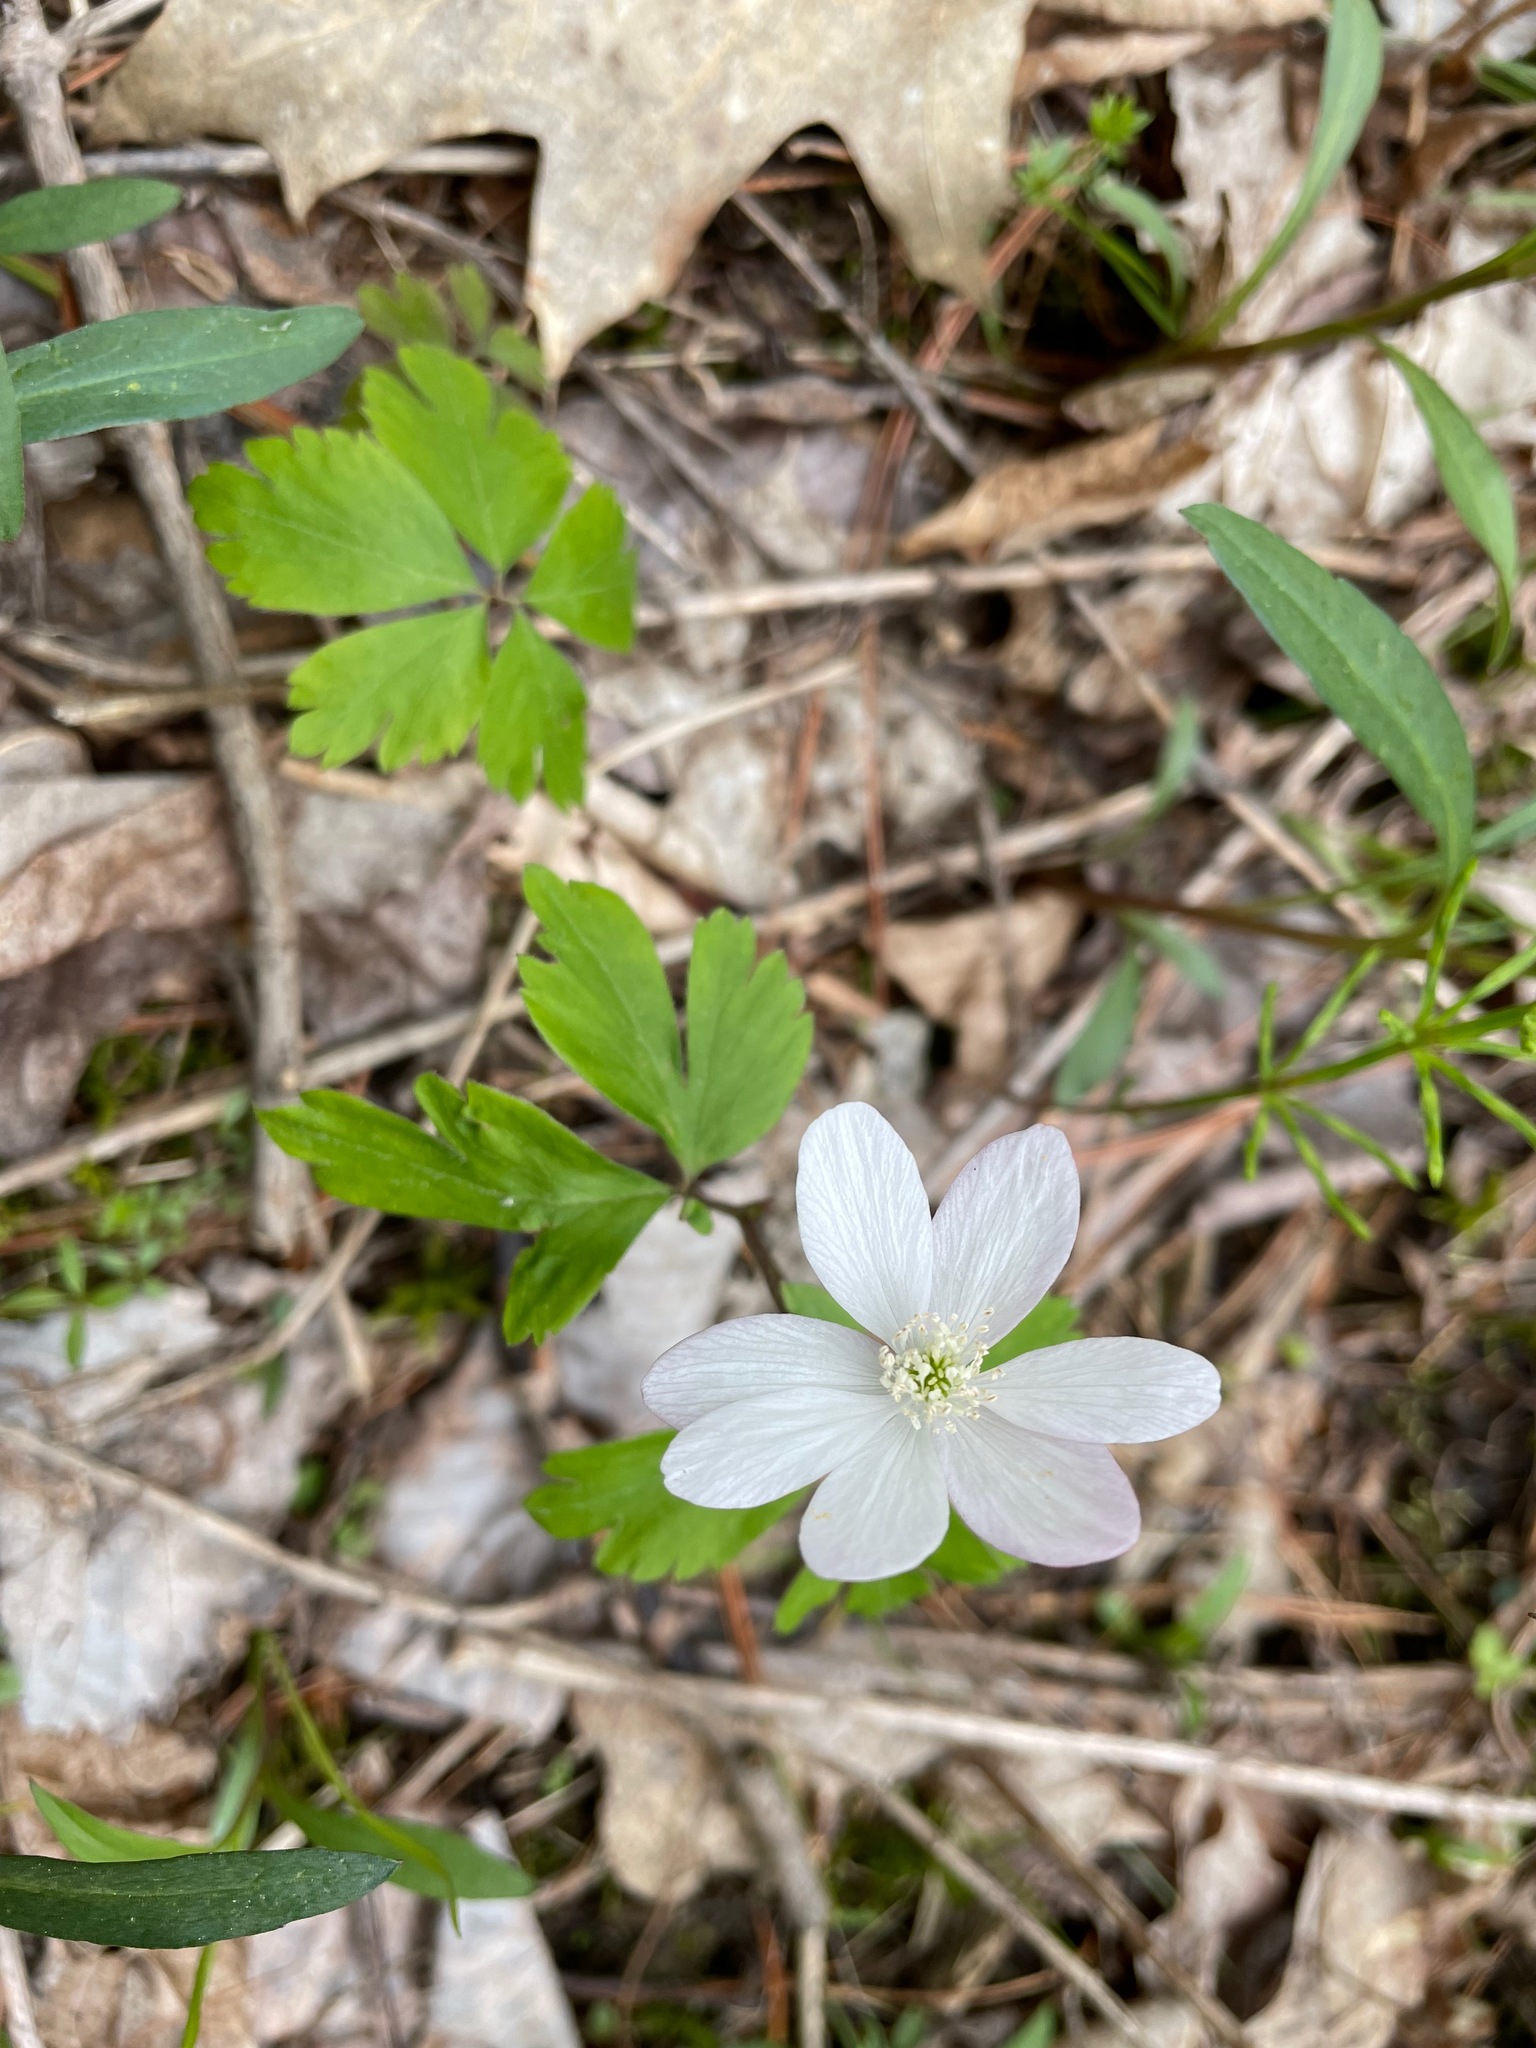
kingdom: Plantae
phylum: Tracheophyta
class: Magnoliopsida
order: Ranunculales
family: Ranunculaceae
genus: Anemone
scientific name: Anemone quinquefolia
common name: Wood anemone
